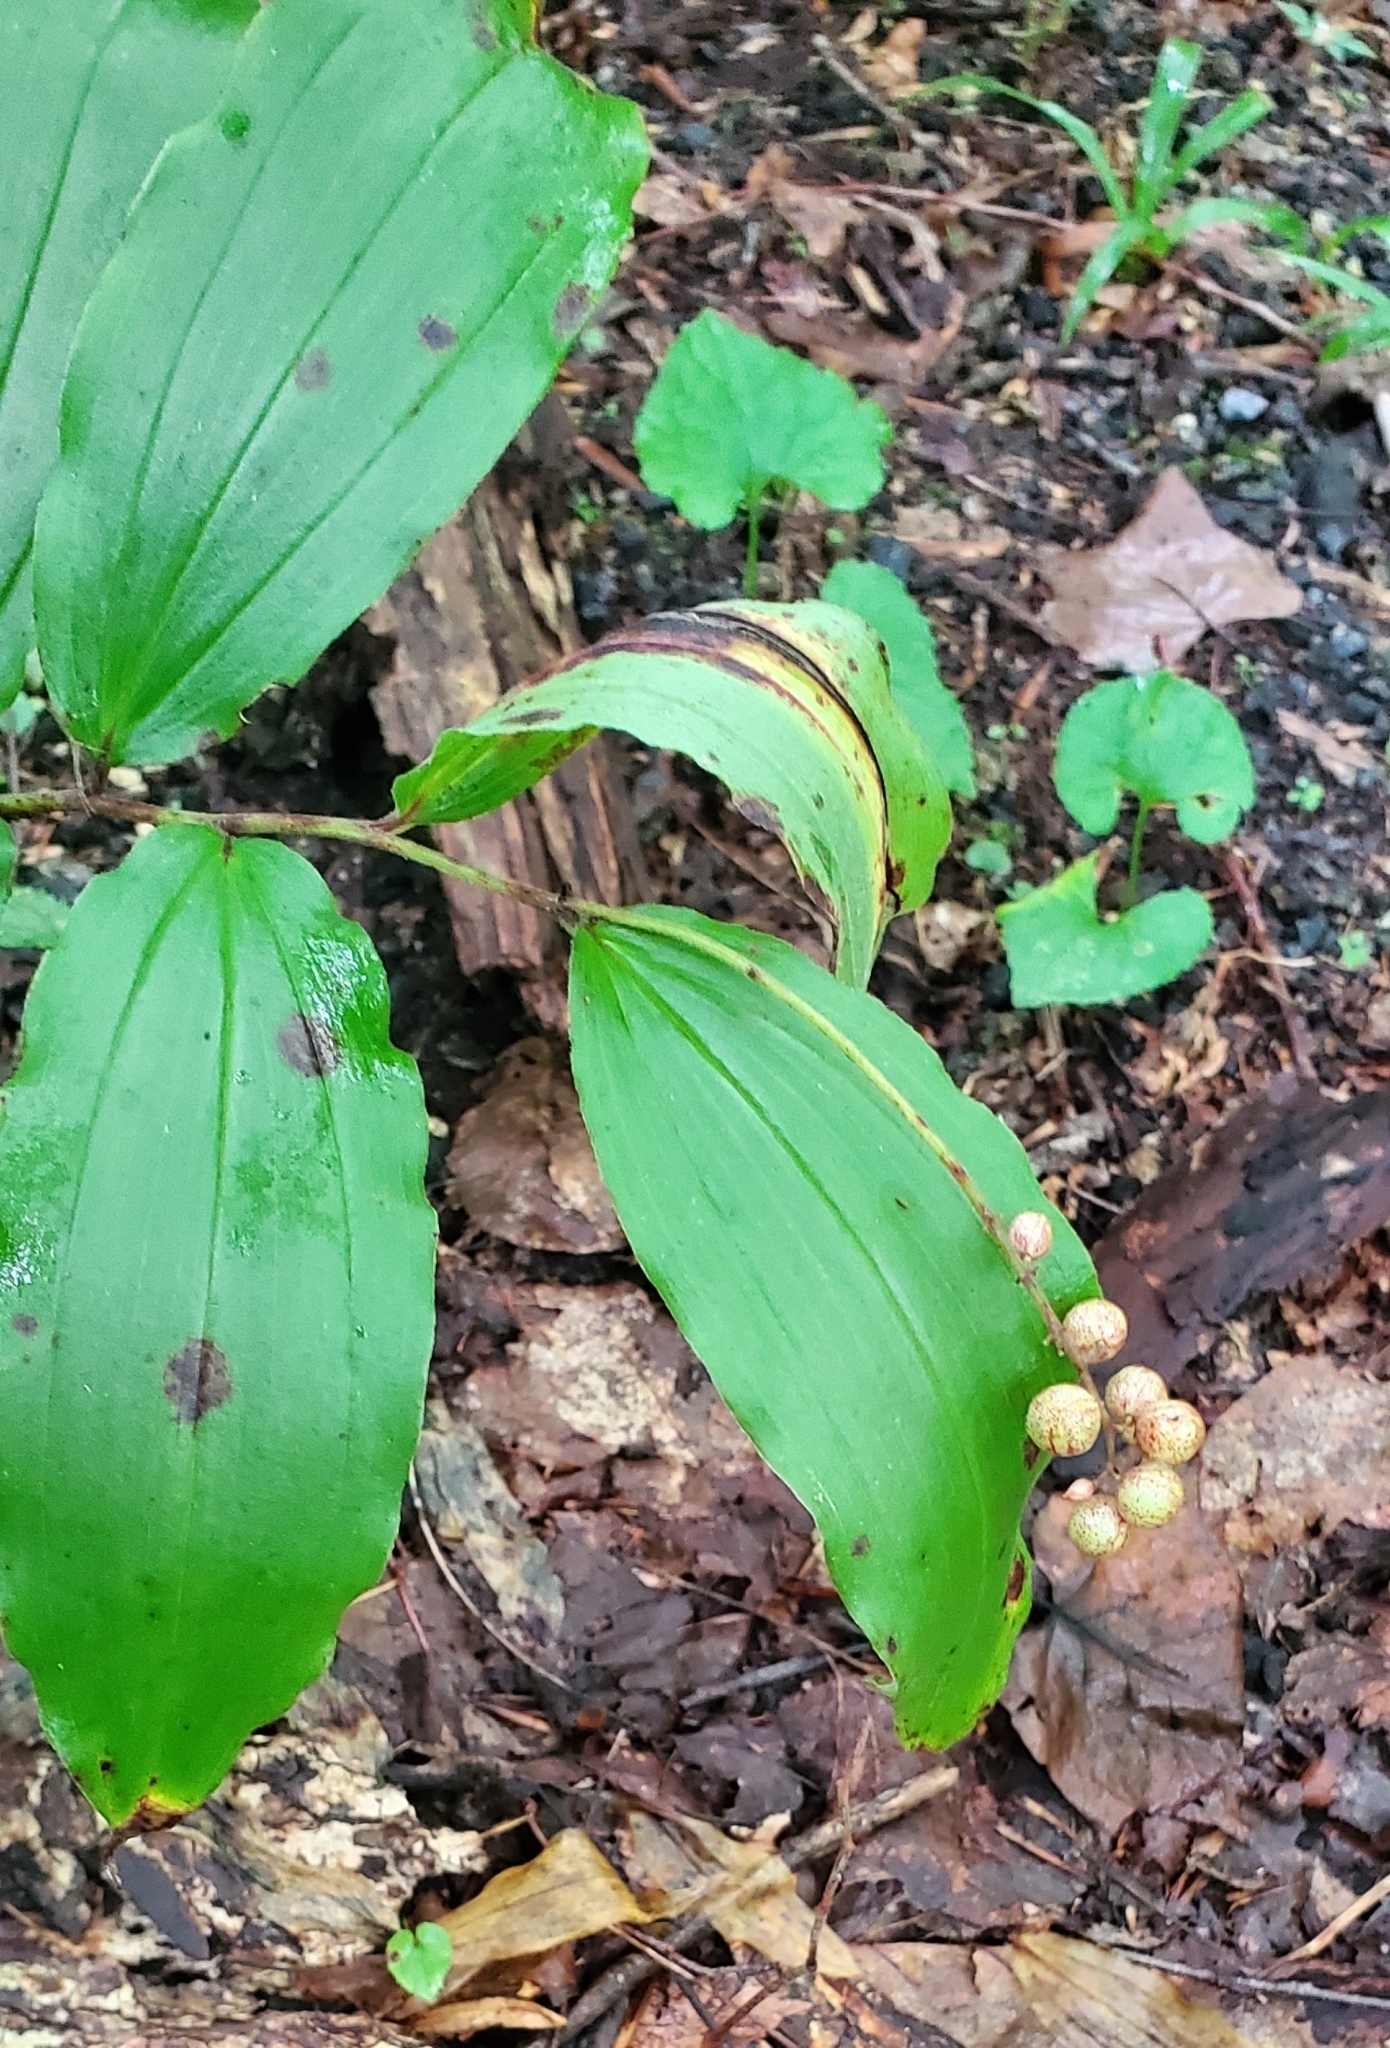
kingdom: Plantae
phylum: Tracheophyta
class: Liliopsida
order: Asparagales
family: Asparagaceae
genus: Maianthemum
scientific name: Maianthemum racemosum
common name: False spikenard
